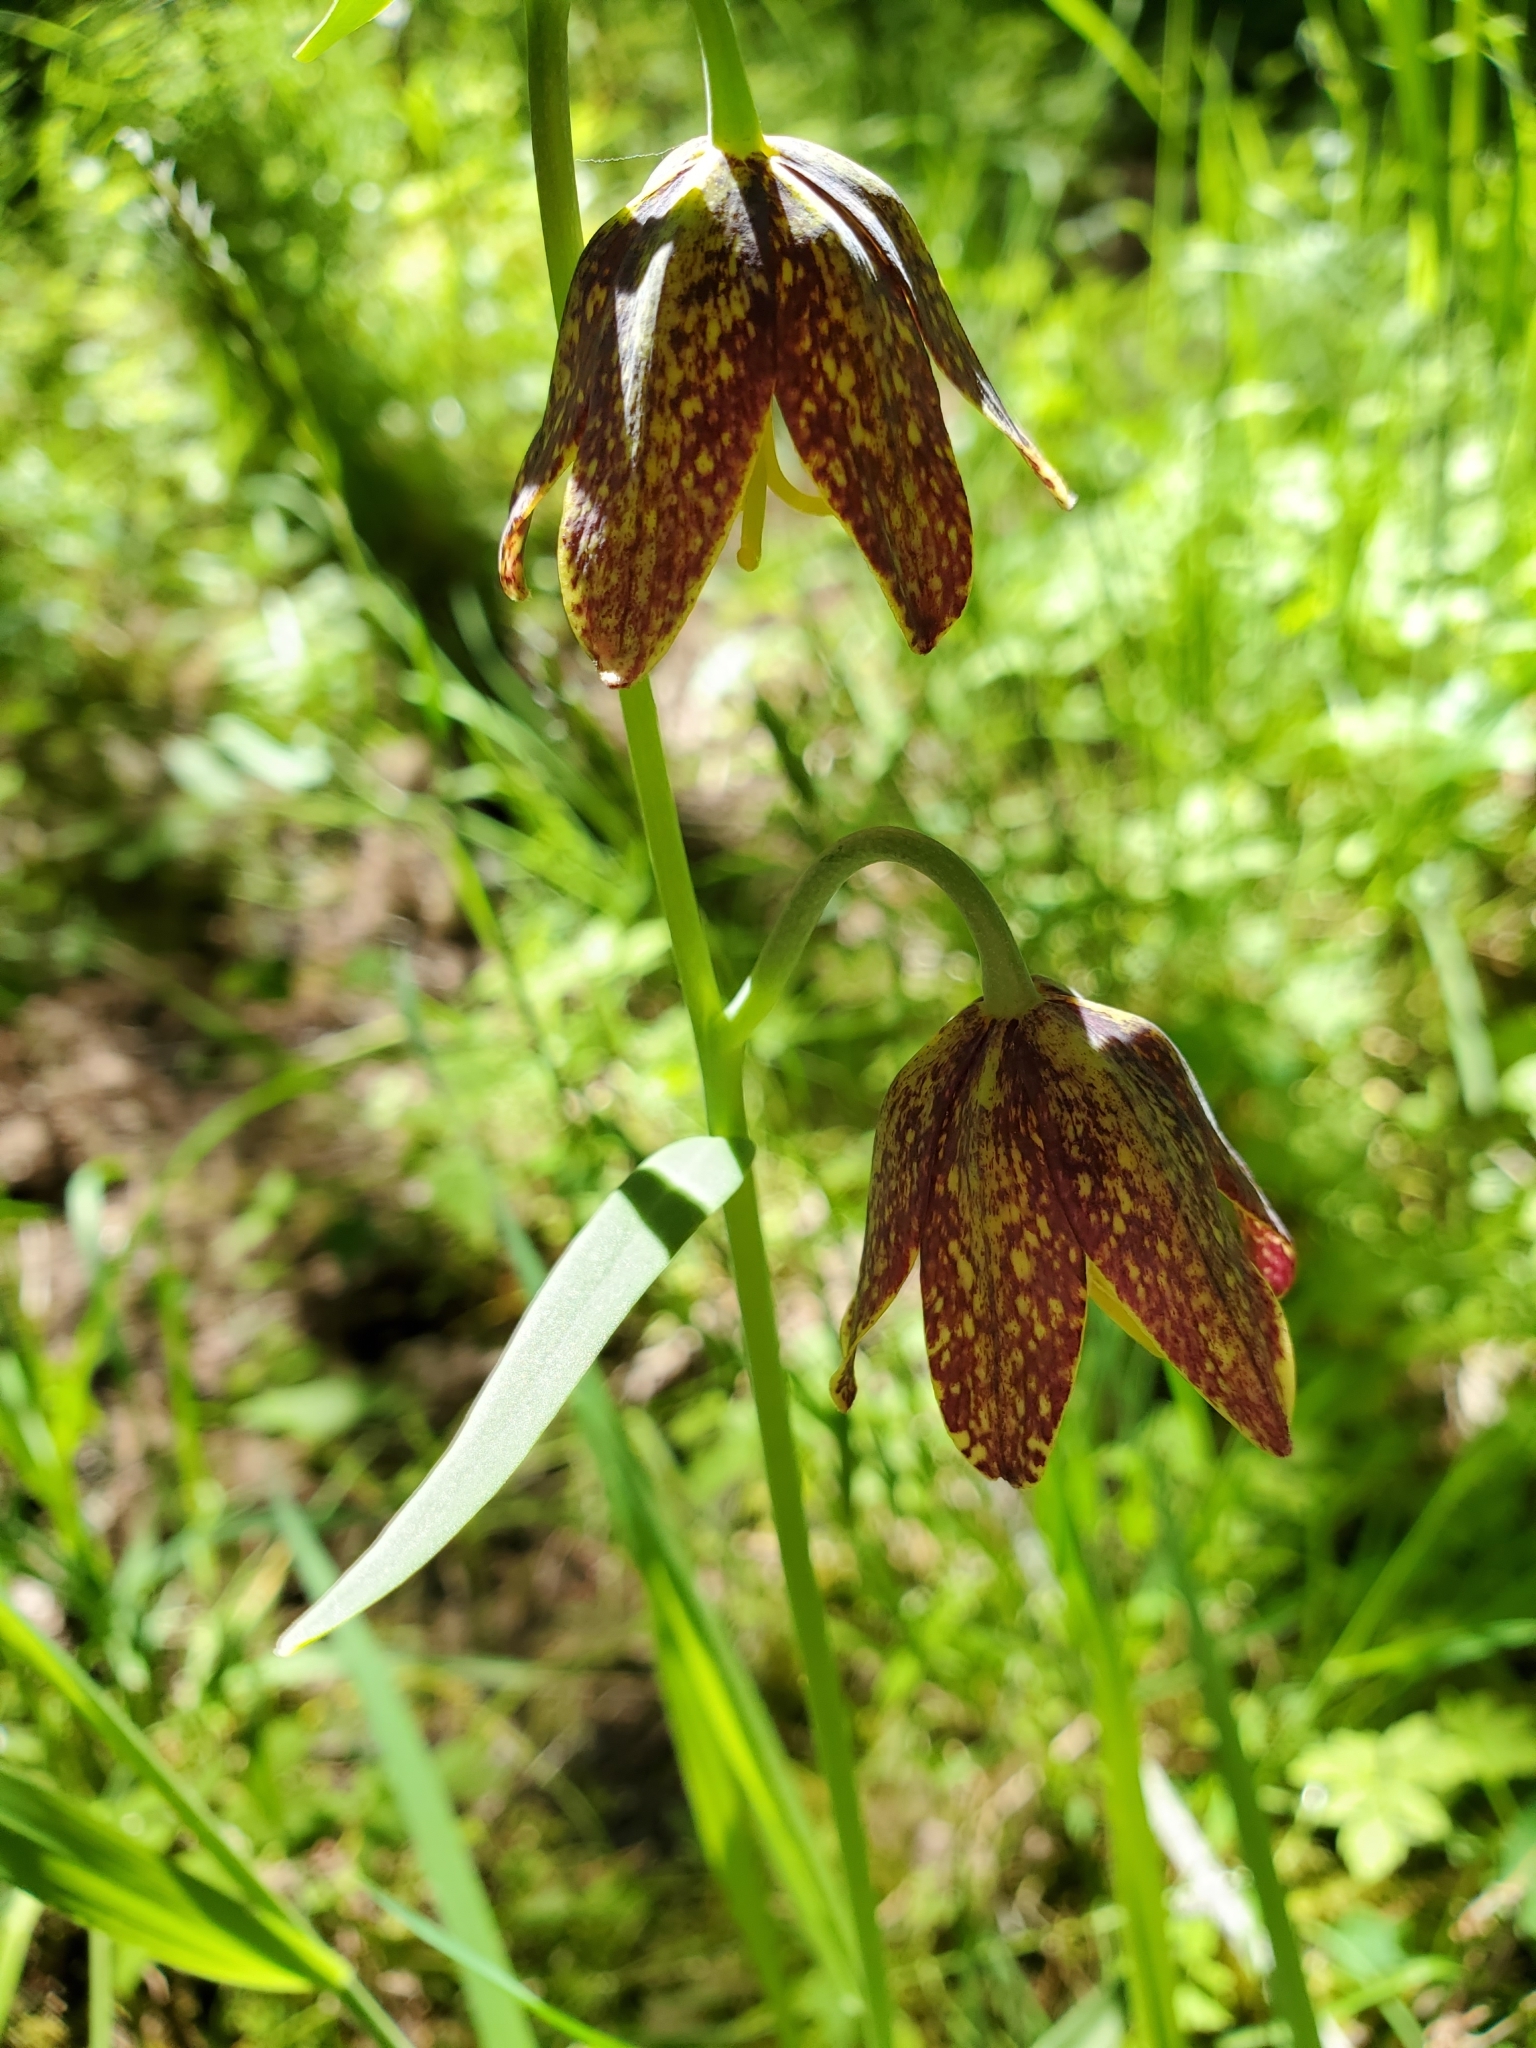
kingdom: Plantae
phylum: Tracheophyta
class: Liliopsida
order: Liliales
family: Liliaceae
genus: Fritillaria
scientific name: Fritillaria affinis
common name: Ojai fritillary
